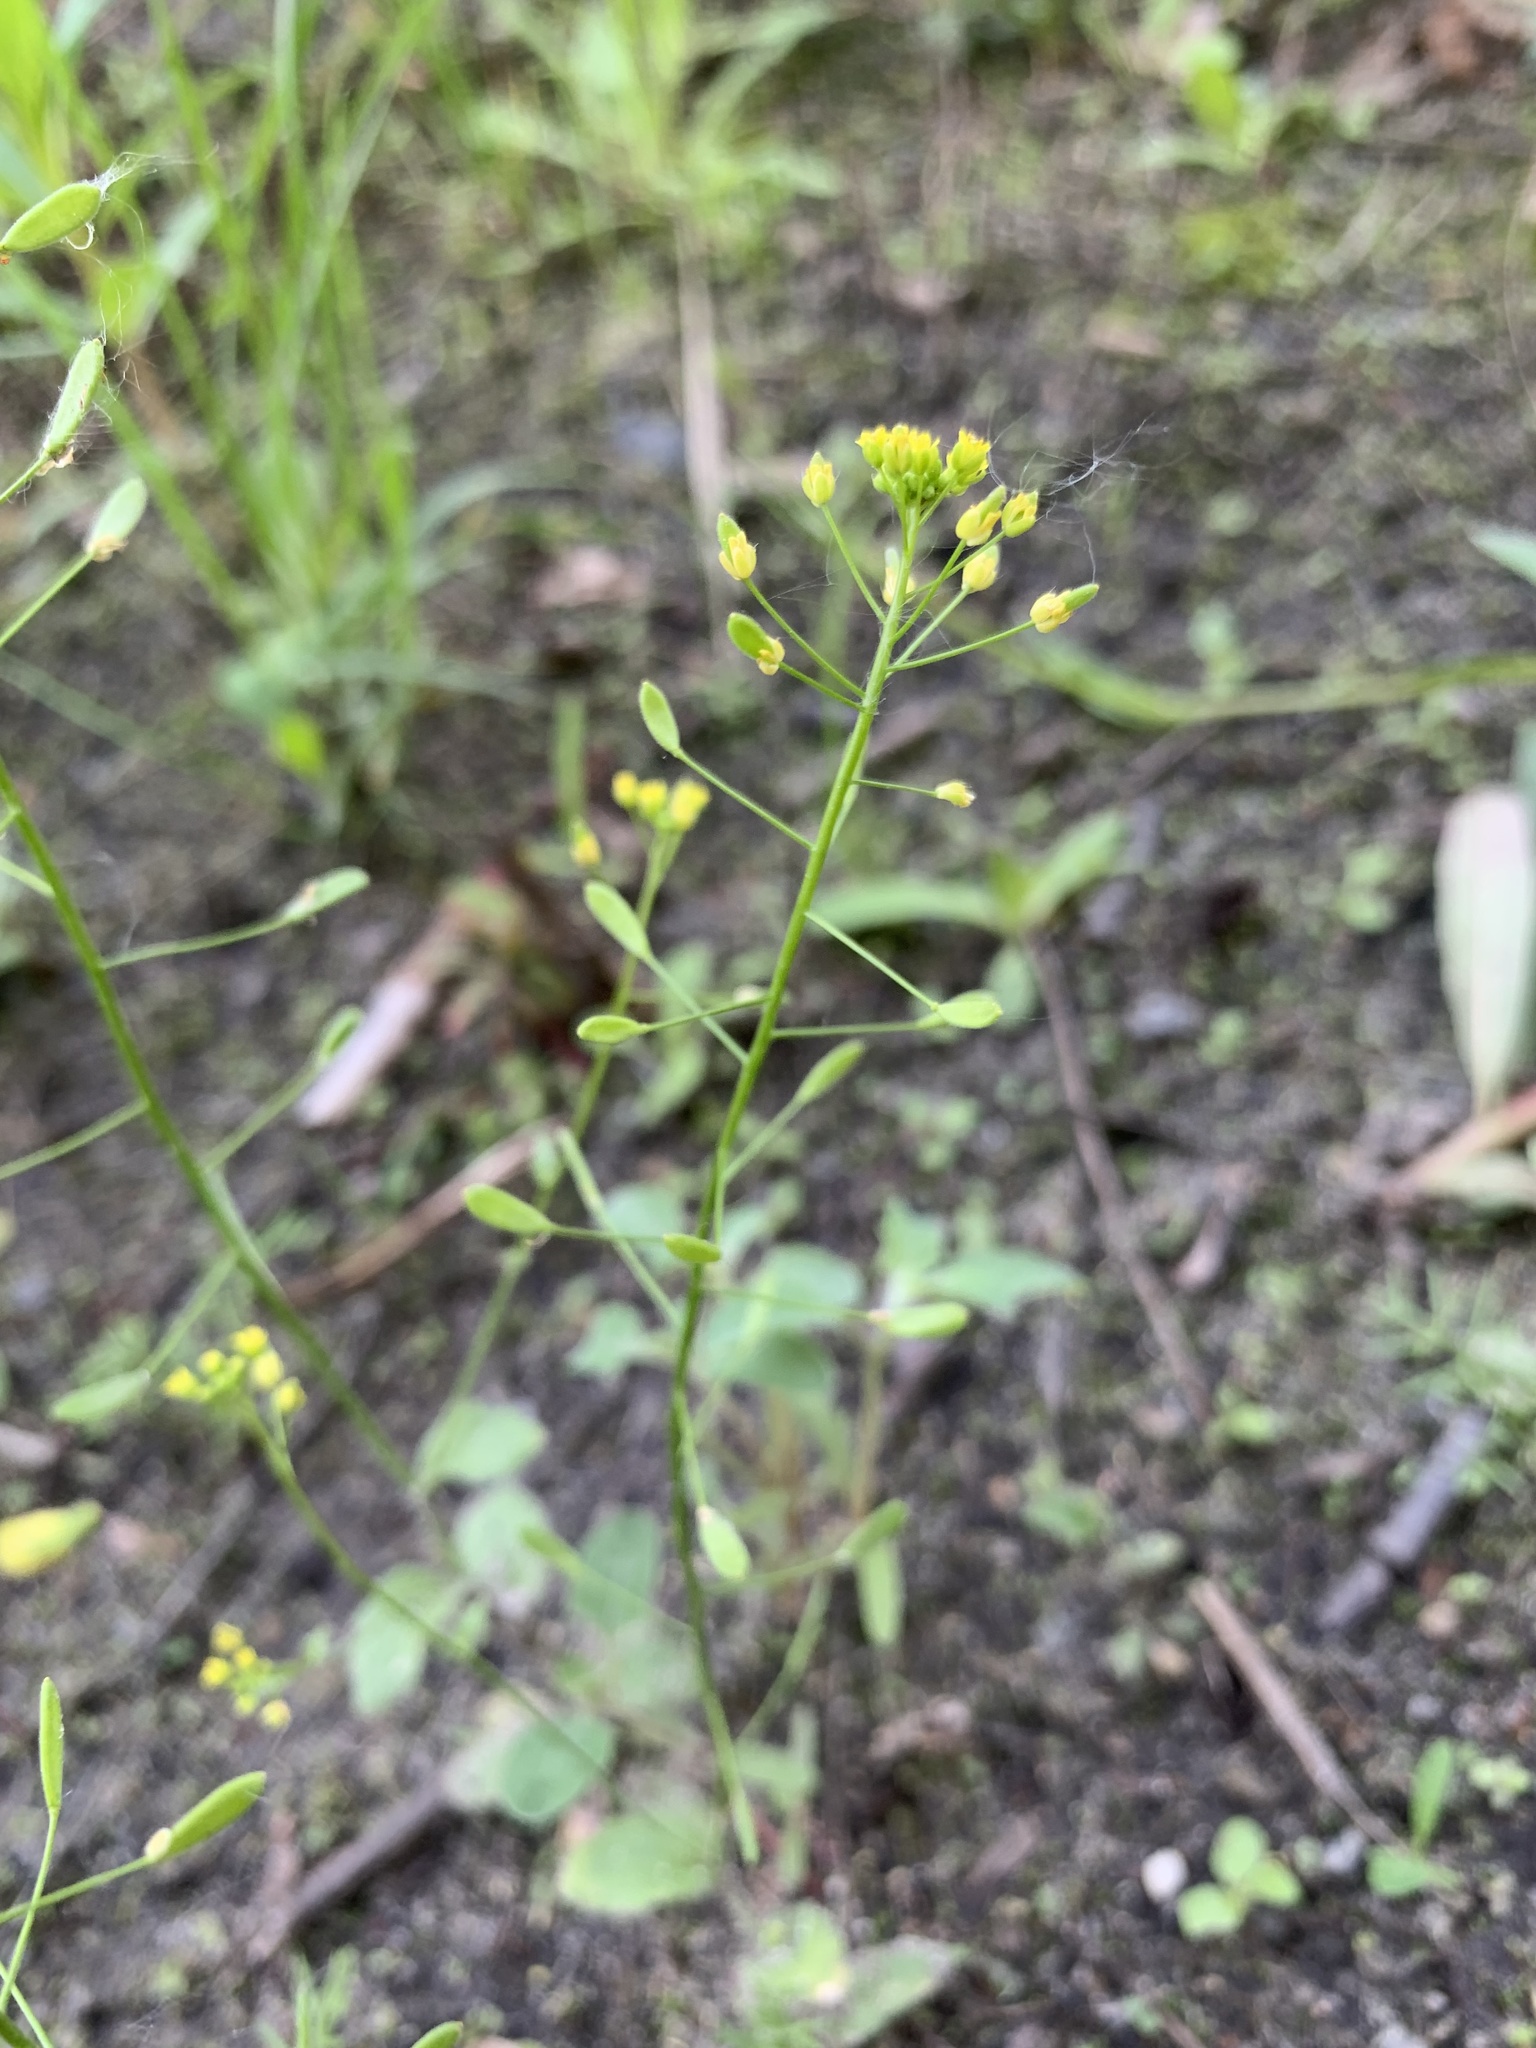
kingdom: Plantae
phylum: Tracheophyta
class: Magnoliopsida
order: Brassicales
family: Brassicaceae
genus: Draba
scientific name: Draba nemorosa
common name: Wood whitlow-grass
